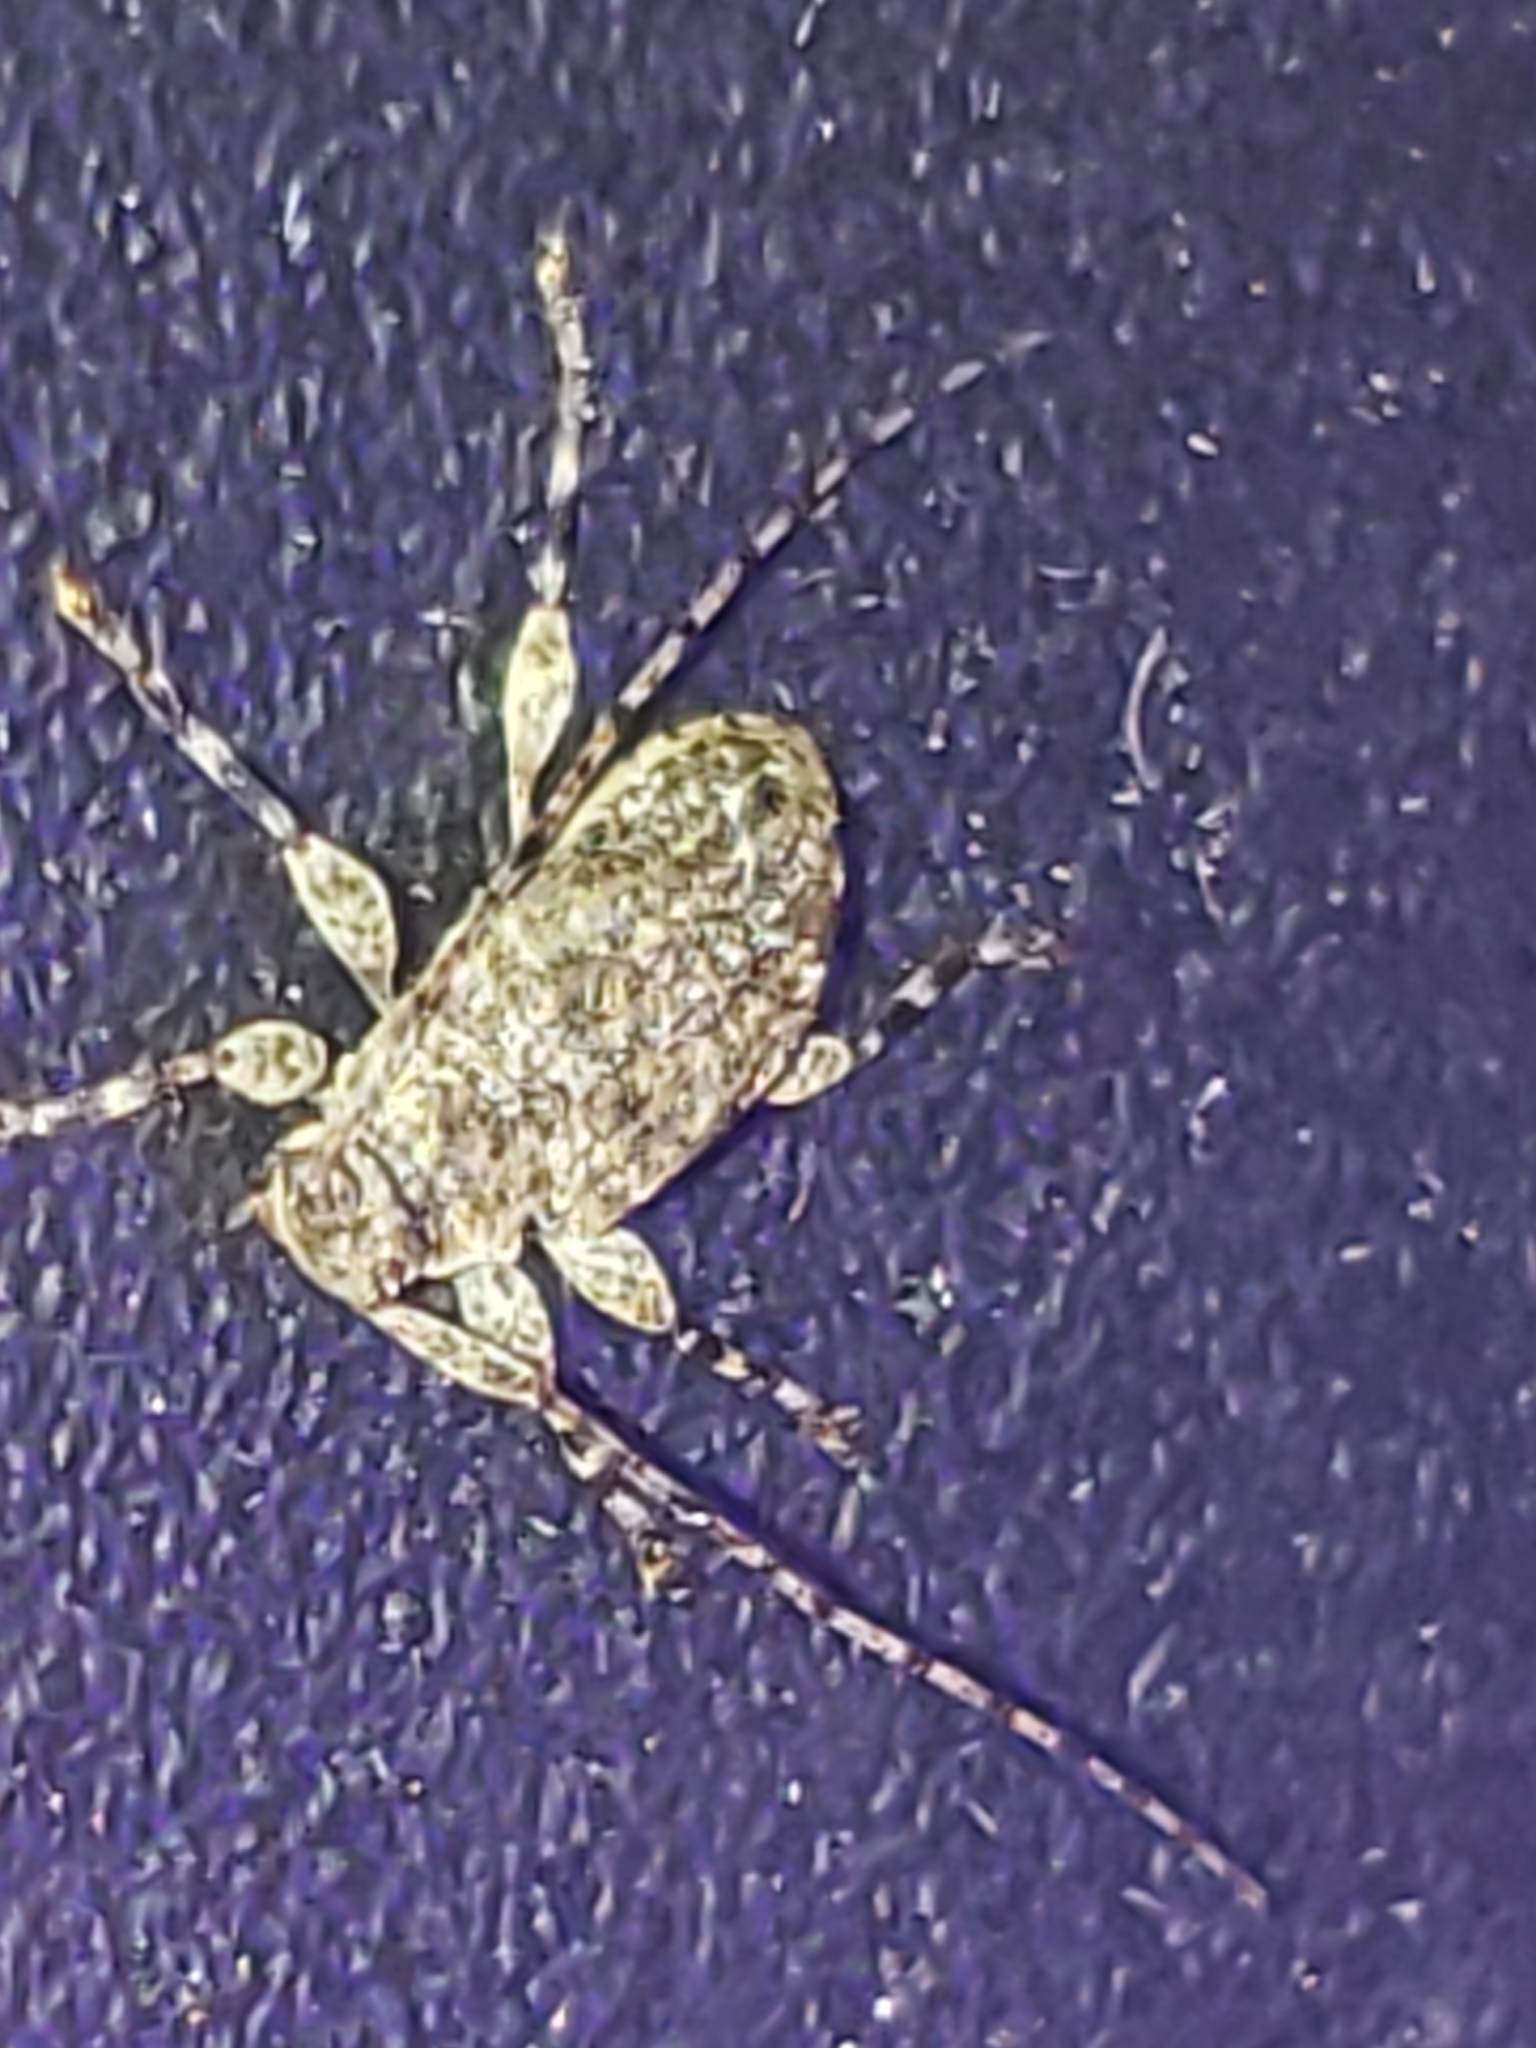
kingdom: Animalia
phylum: Arthropoda
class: Insecta
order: Coleoptera
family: Cerambycidae
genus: Astylidius
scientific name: Astylidius parvus
